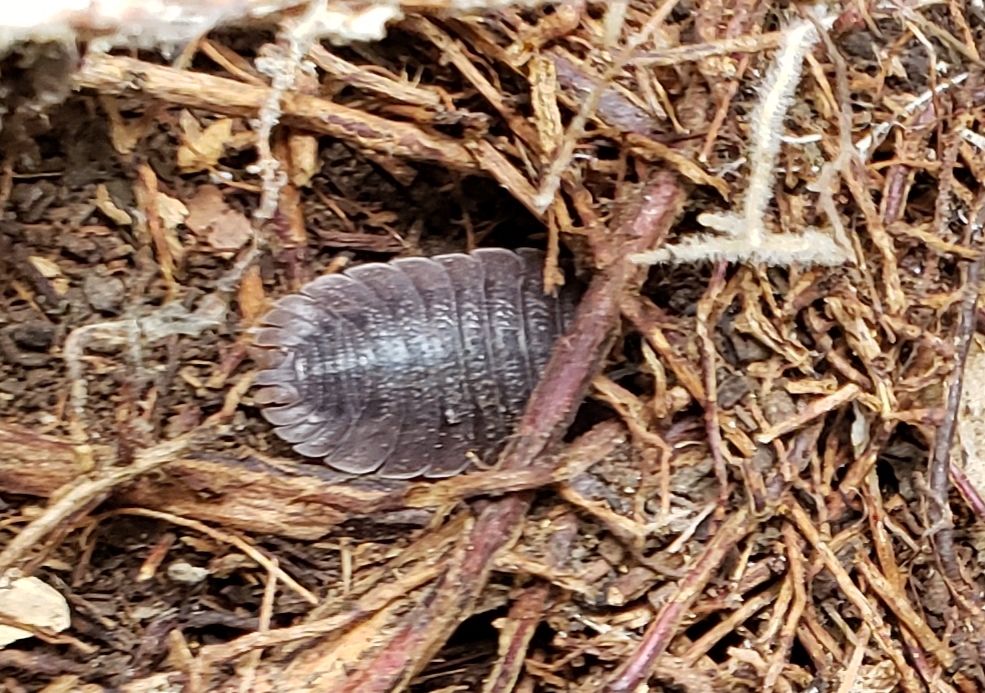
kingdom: Animalia
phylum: Arthropoda
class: Malacostraca
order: Isopoda
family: Porcellionidae
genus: Porcellio
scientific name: Porcellio dilatatus
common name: Isopod
